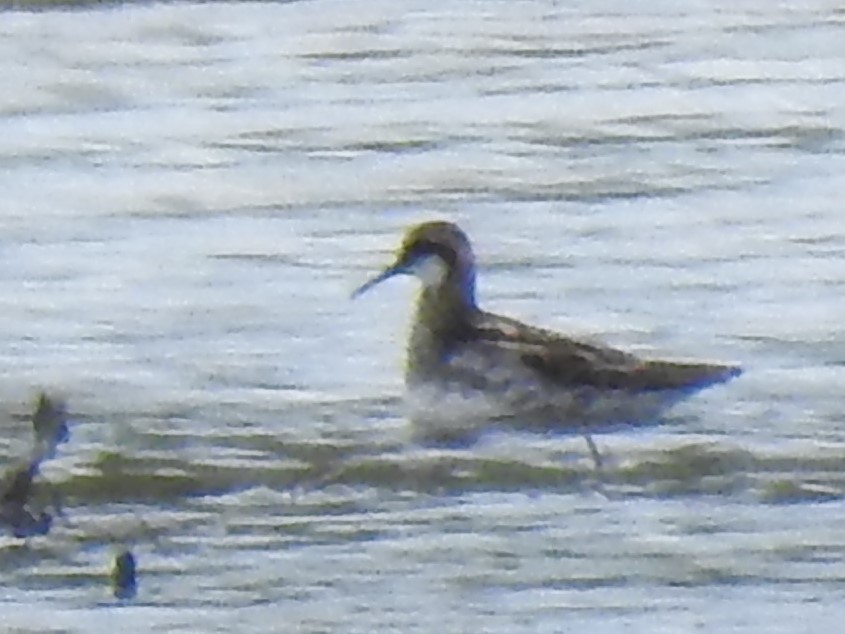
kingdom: Animalia
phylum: Chordata
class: Aves
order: Charadriiformes
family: Scolopacidae
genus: Phalaropus
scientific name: Phalaropus lobatus
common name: Red-necked phalarope
